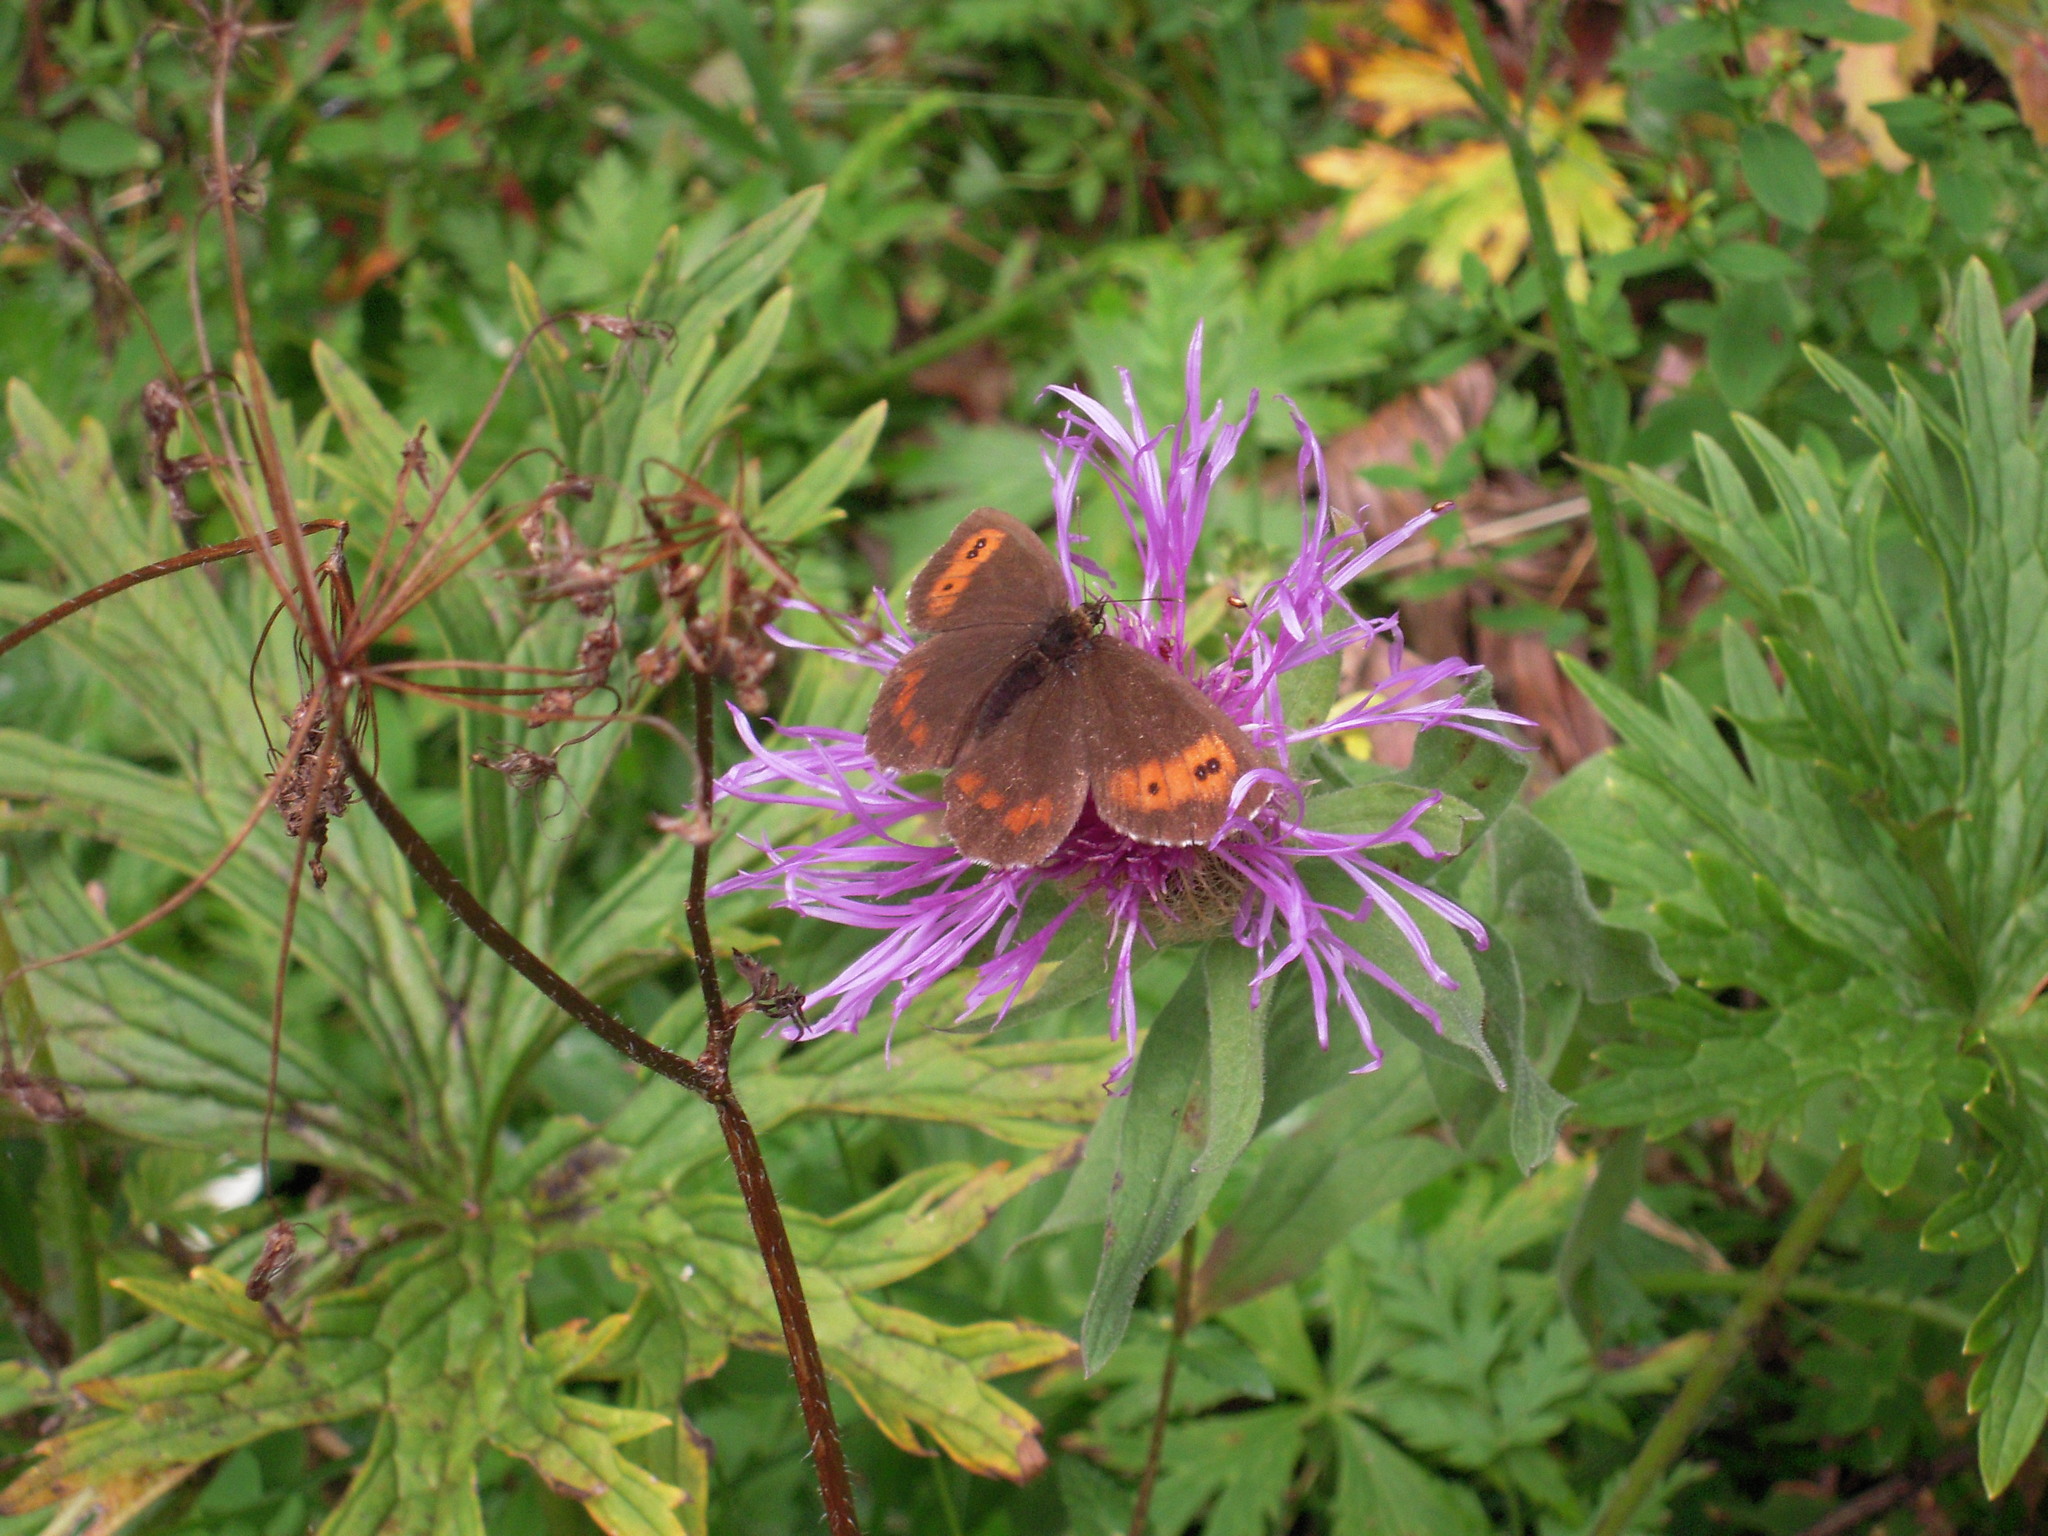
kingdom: Animalia
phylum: Arthropoda
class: Insecta
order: Lepidoptera
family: Nymphalidae
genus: Erebia
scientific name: Erebia euryale
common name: Large ringlet
